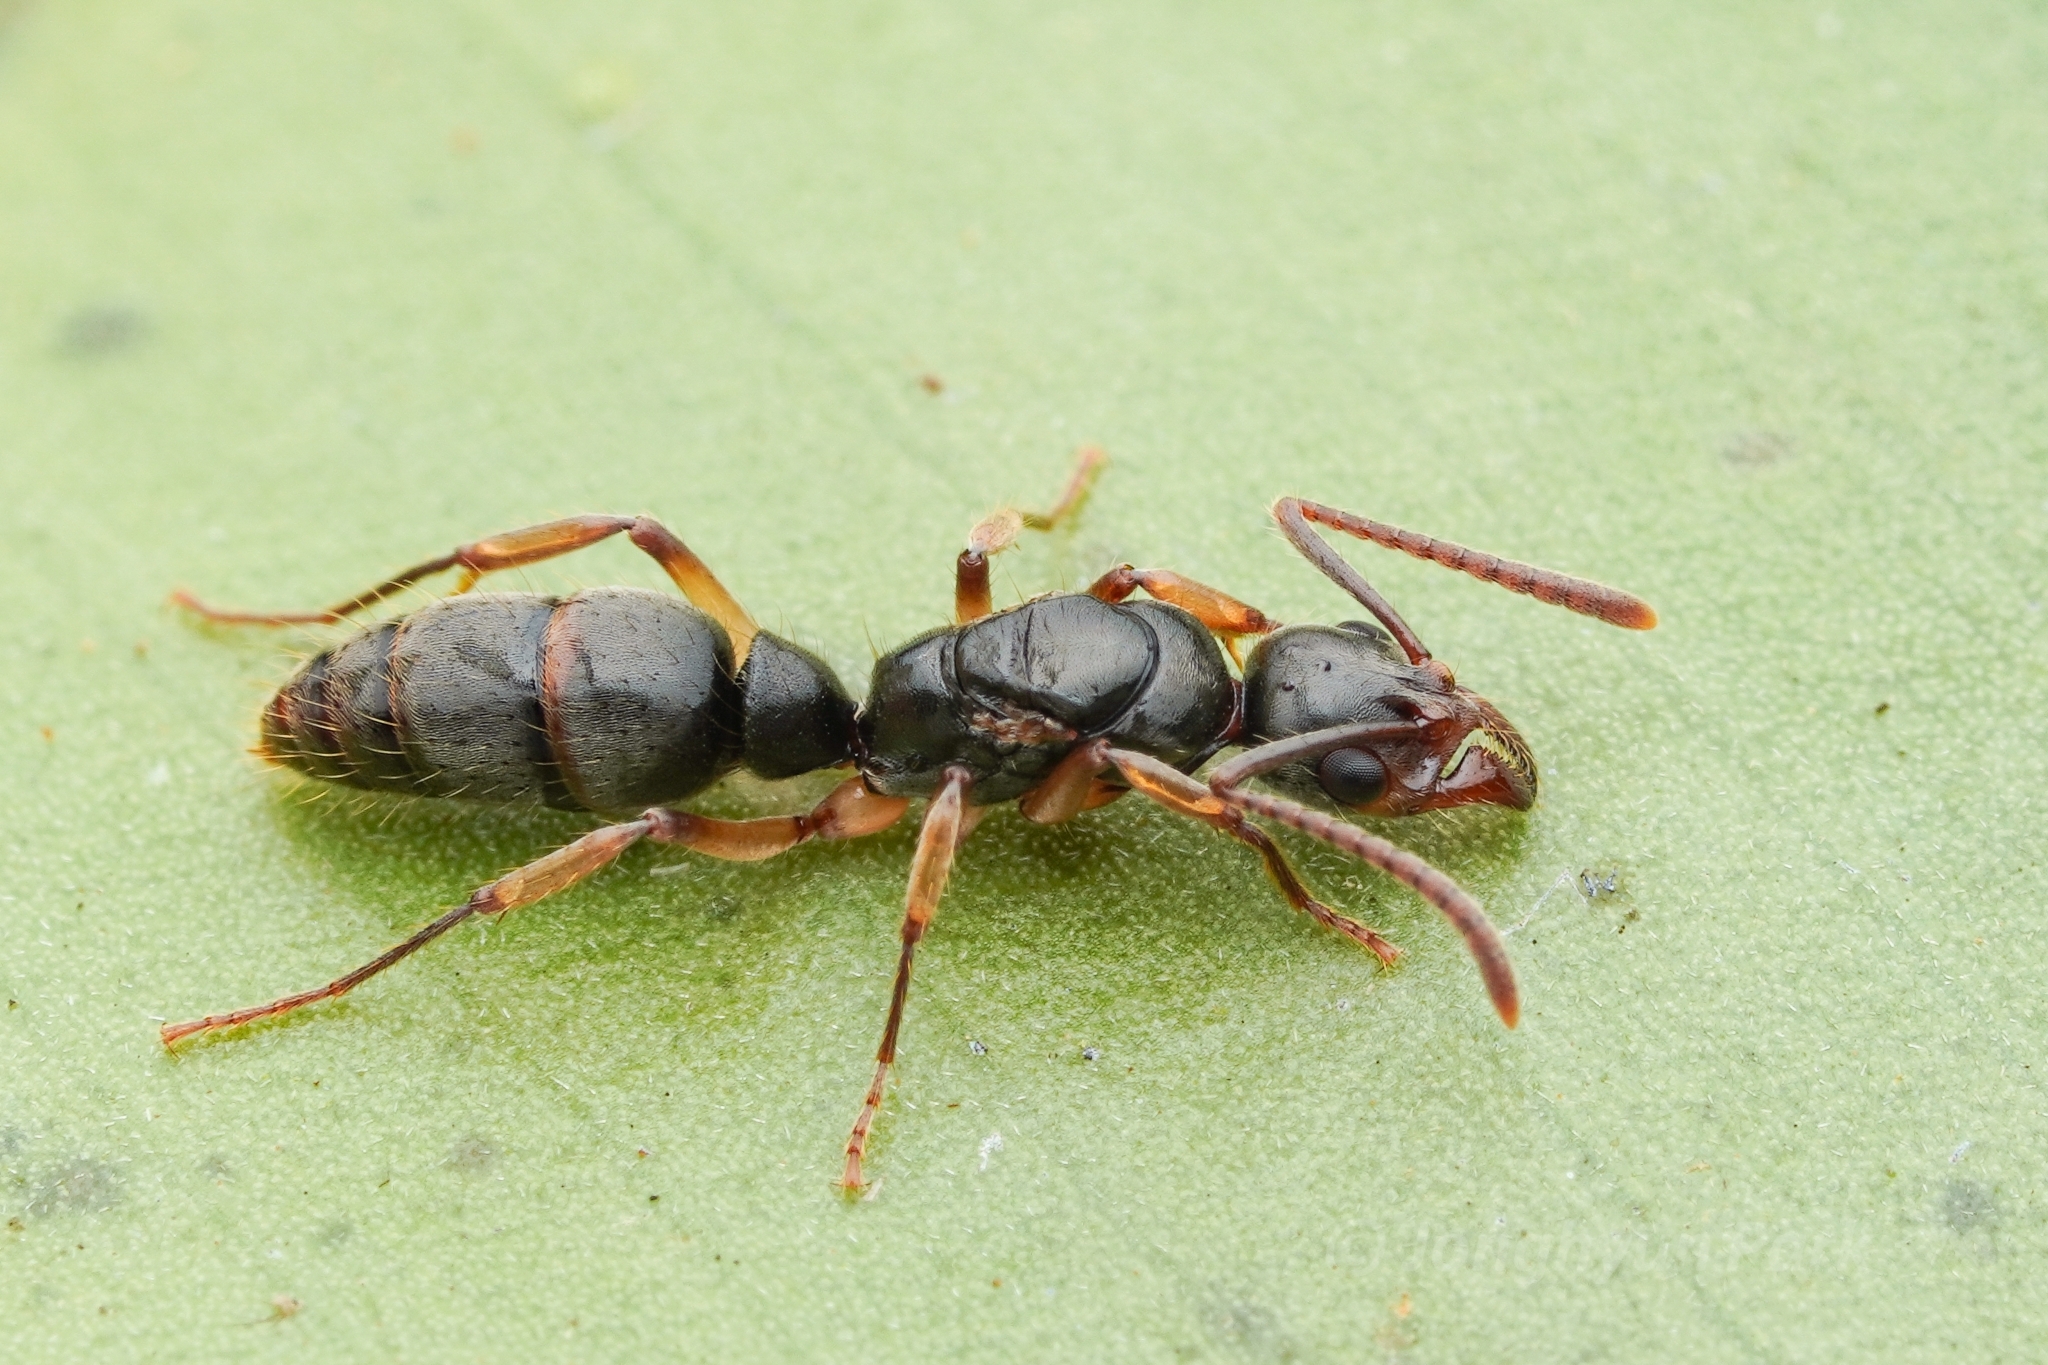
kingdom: Animalia
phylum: Arthropoda
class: Insecta
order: Hymenoptera
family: Formicidae
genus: Neoponera
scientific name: Neoponera oberthueri
